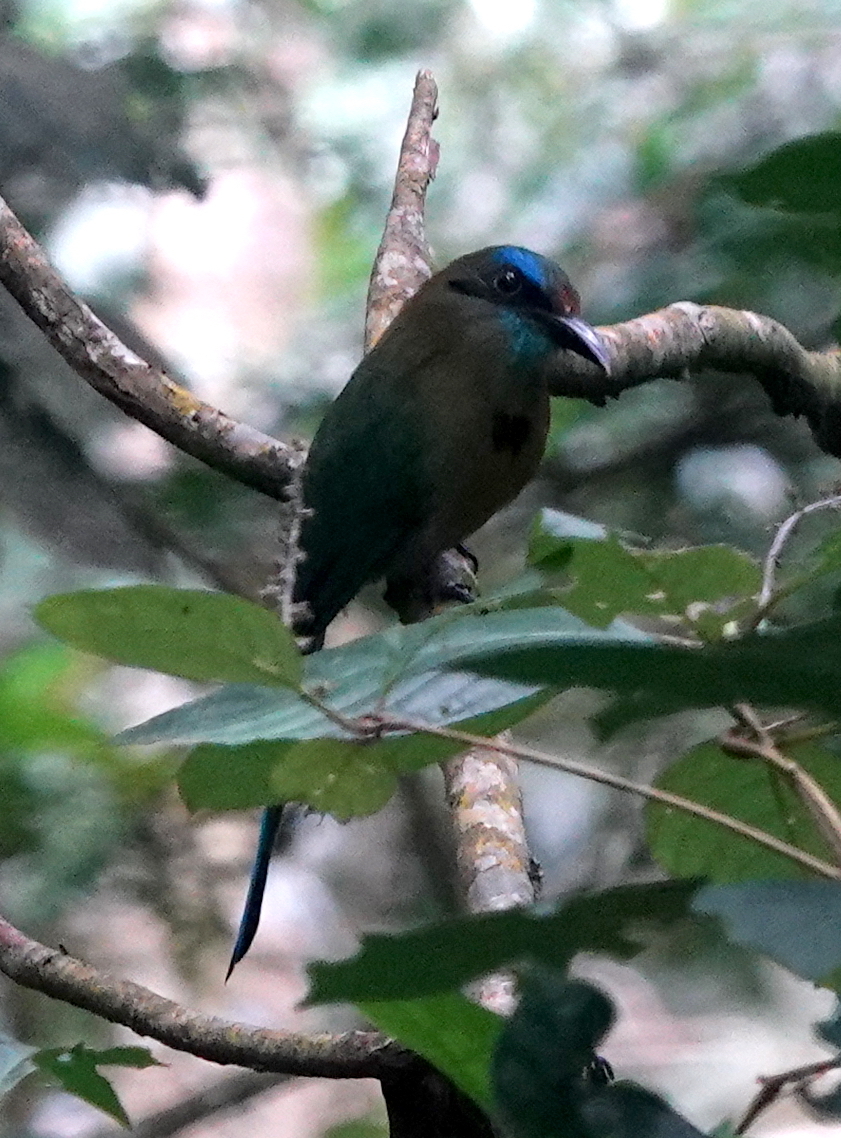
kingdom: Animalia
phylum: Chordata
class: Aves
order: Coraciiformes
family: Momotidae
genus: Electron
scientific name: Electron carinatum
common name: Keel-billed motmot
